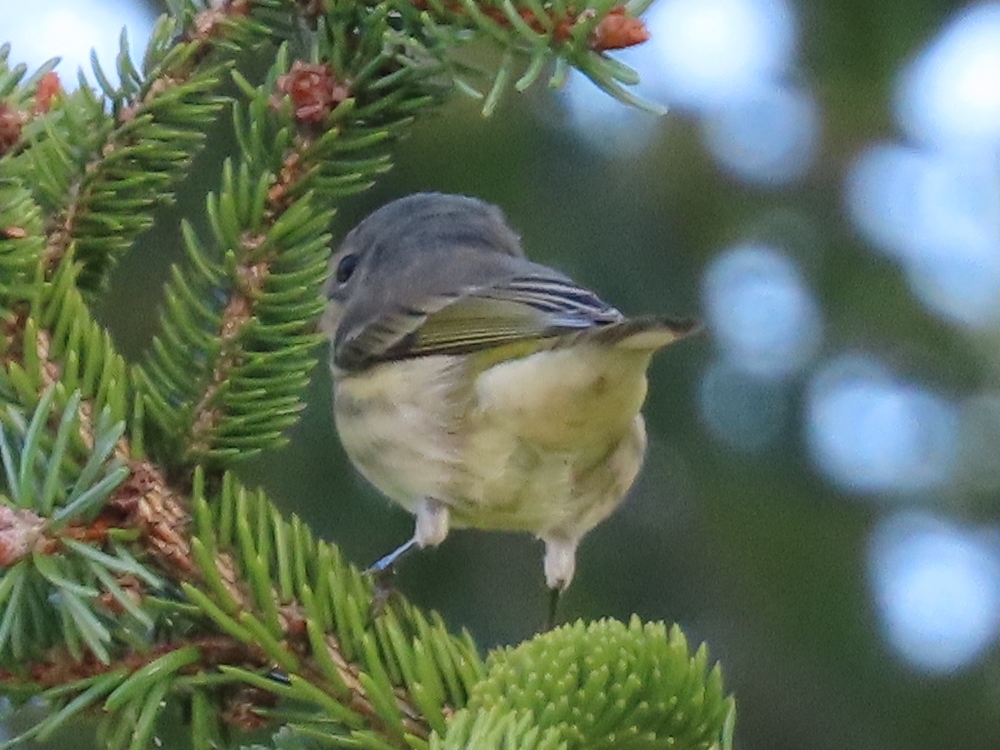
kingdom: Animalia
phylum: Chordata
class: Aves
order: Passeriformes
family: Parulidae
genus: Setophaga
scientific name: Setophaga tigrina
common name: Cape may warbler
